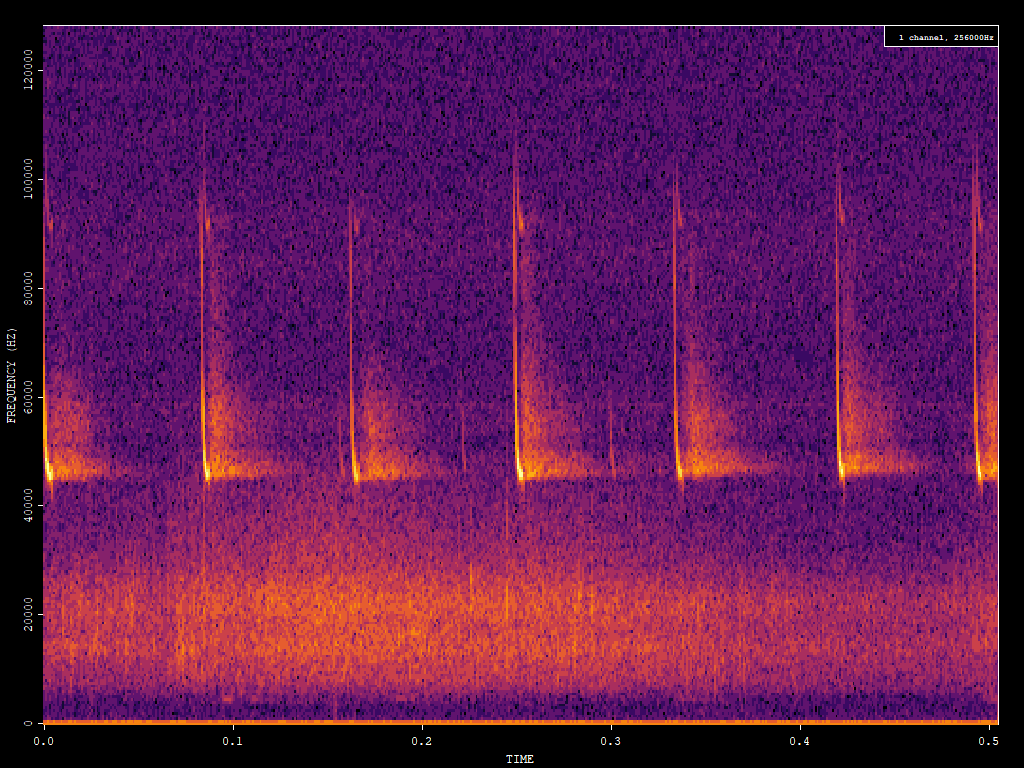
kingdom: Animalia
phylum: Chordata
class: Mammalia
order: Chiroptera
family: Vespertilionidae
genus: Pipistrellus
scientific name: Pipistrellus pipistrellus
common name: Common pipistrelle
